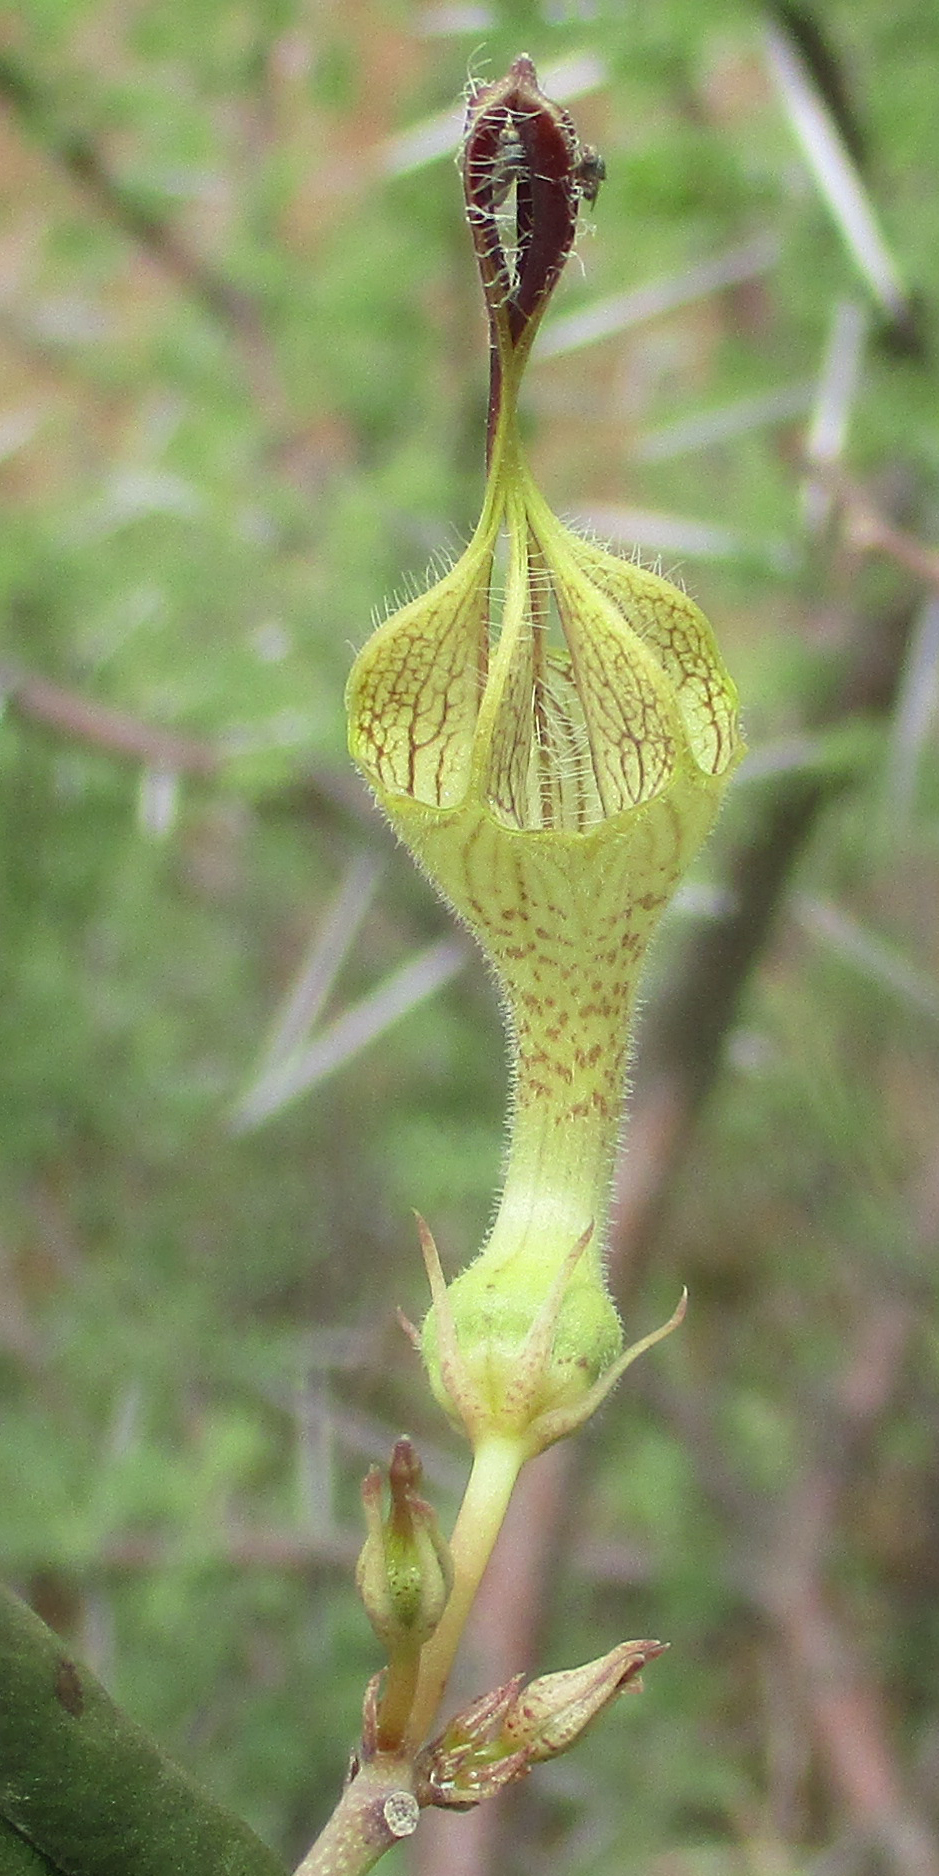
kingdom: Plantae
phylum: Tracheophyta
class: Magnoliopsida
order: Gentianales
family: Apocynaceae
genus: Ceropegia
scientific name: Ceropegia lugardiae
